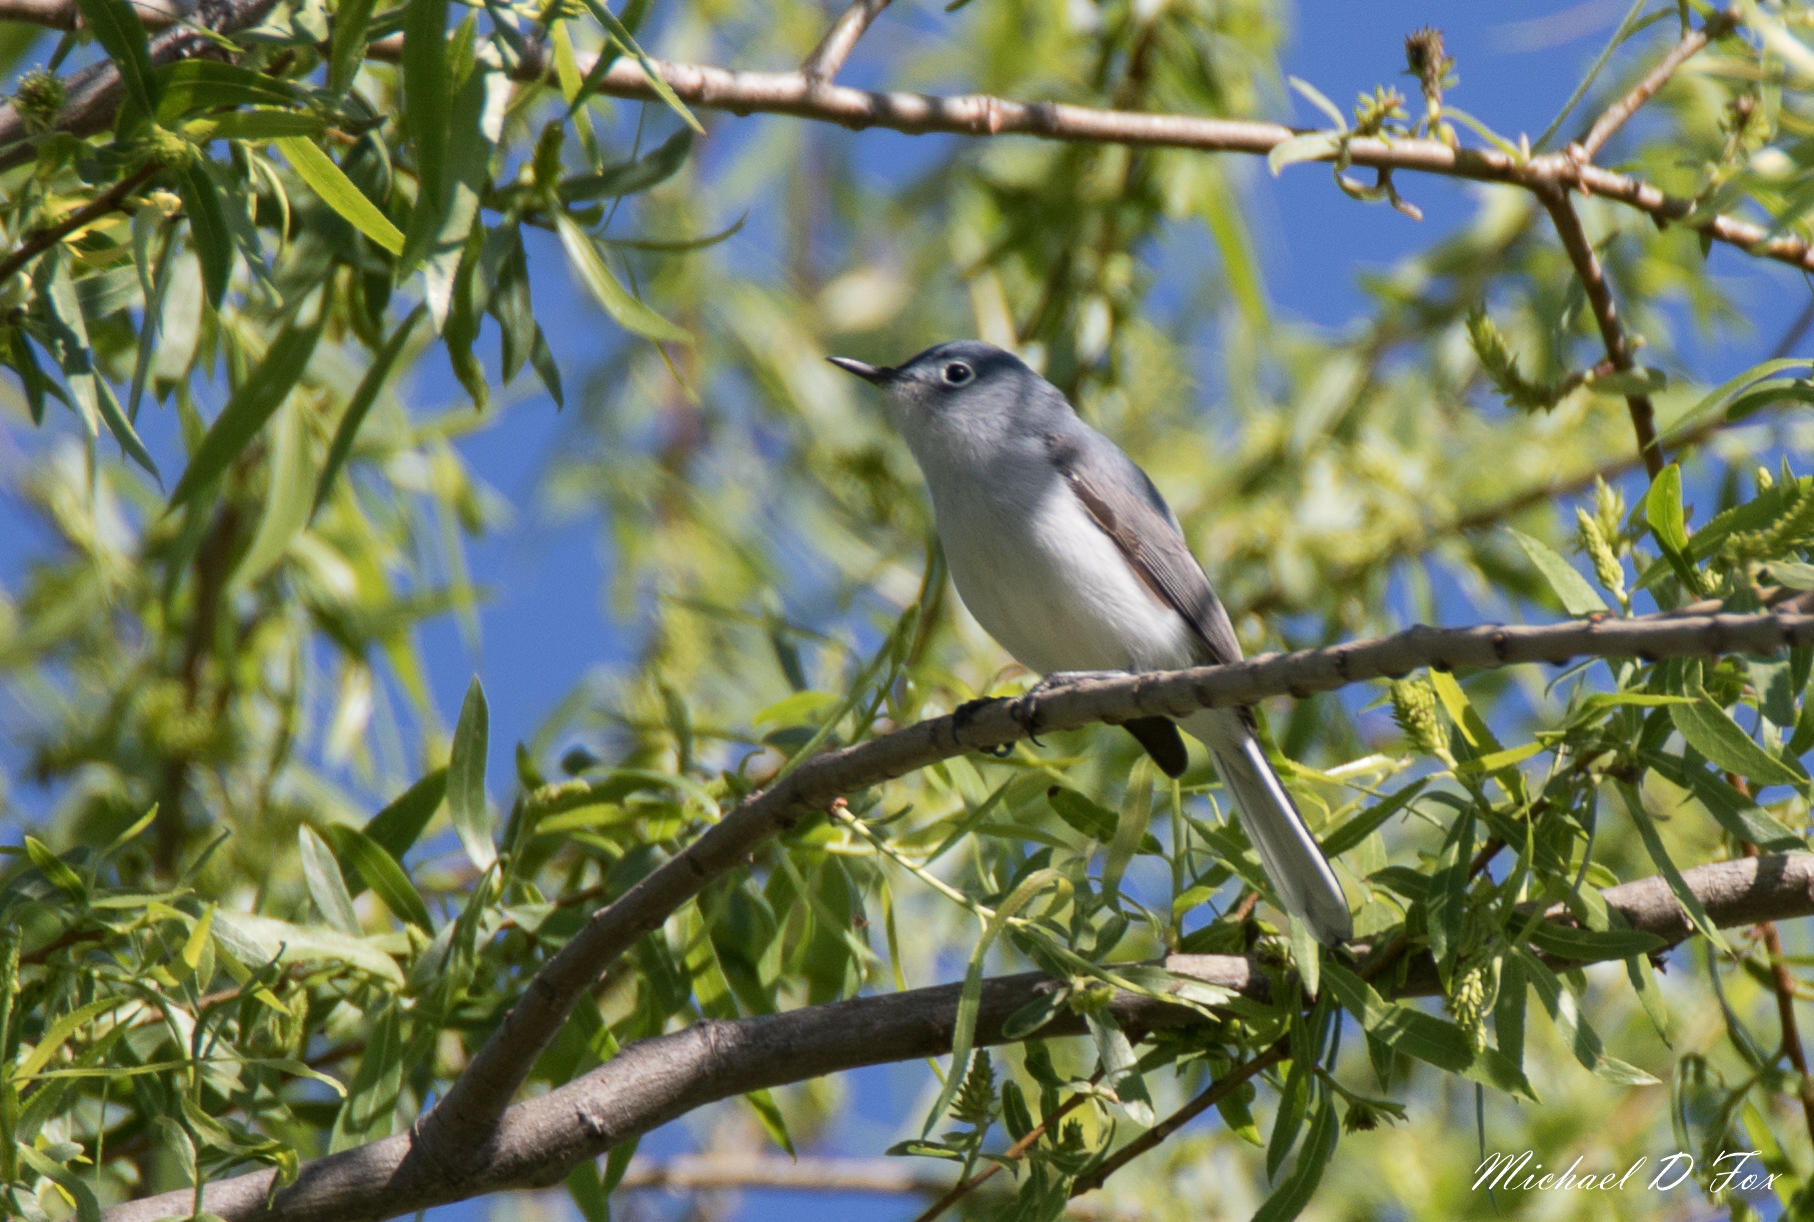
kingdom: Animalia
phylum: Chordata
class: Aves
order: Passeriformes
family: Polioptilidae
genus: Polioptila
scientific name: Polioptila caerulea
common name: Blue-gray gnatcatcher
